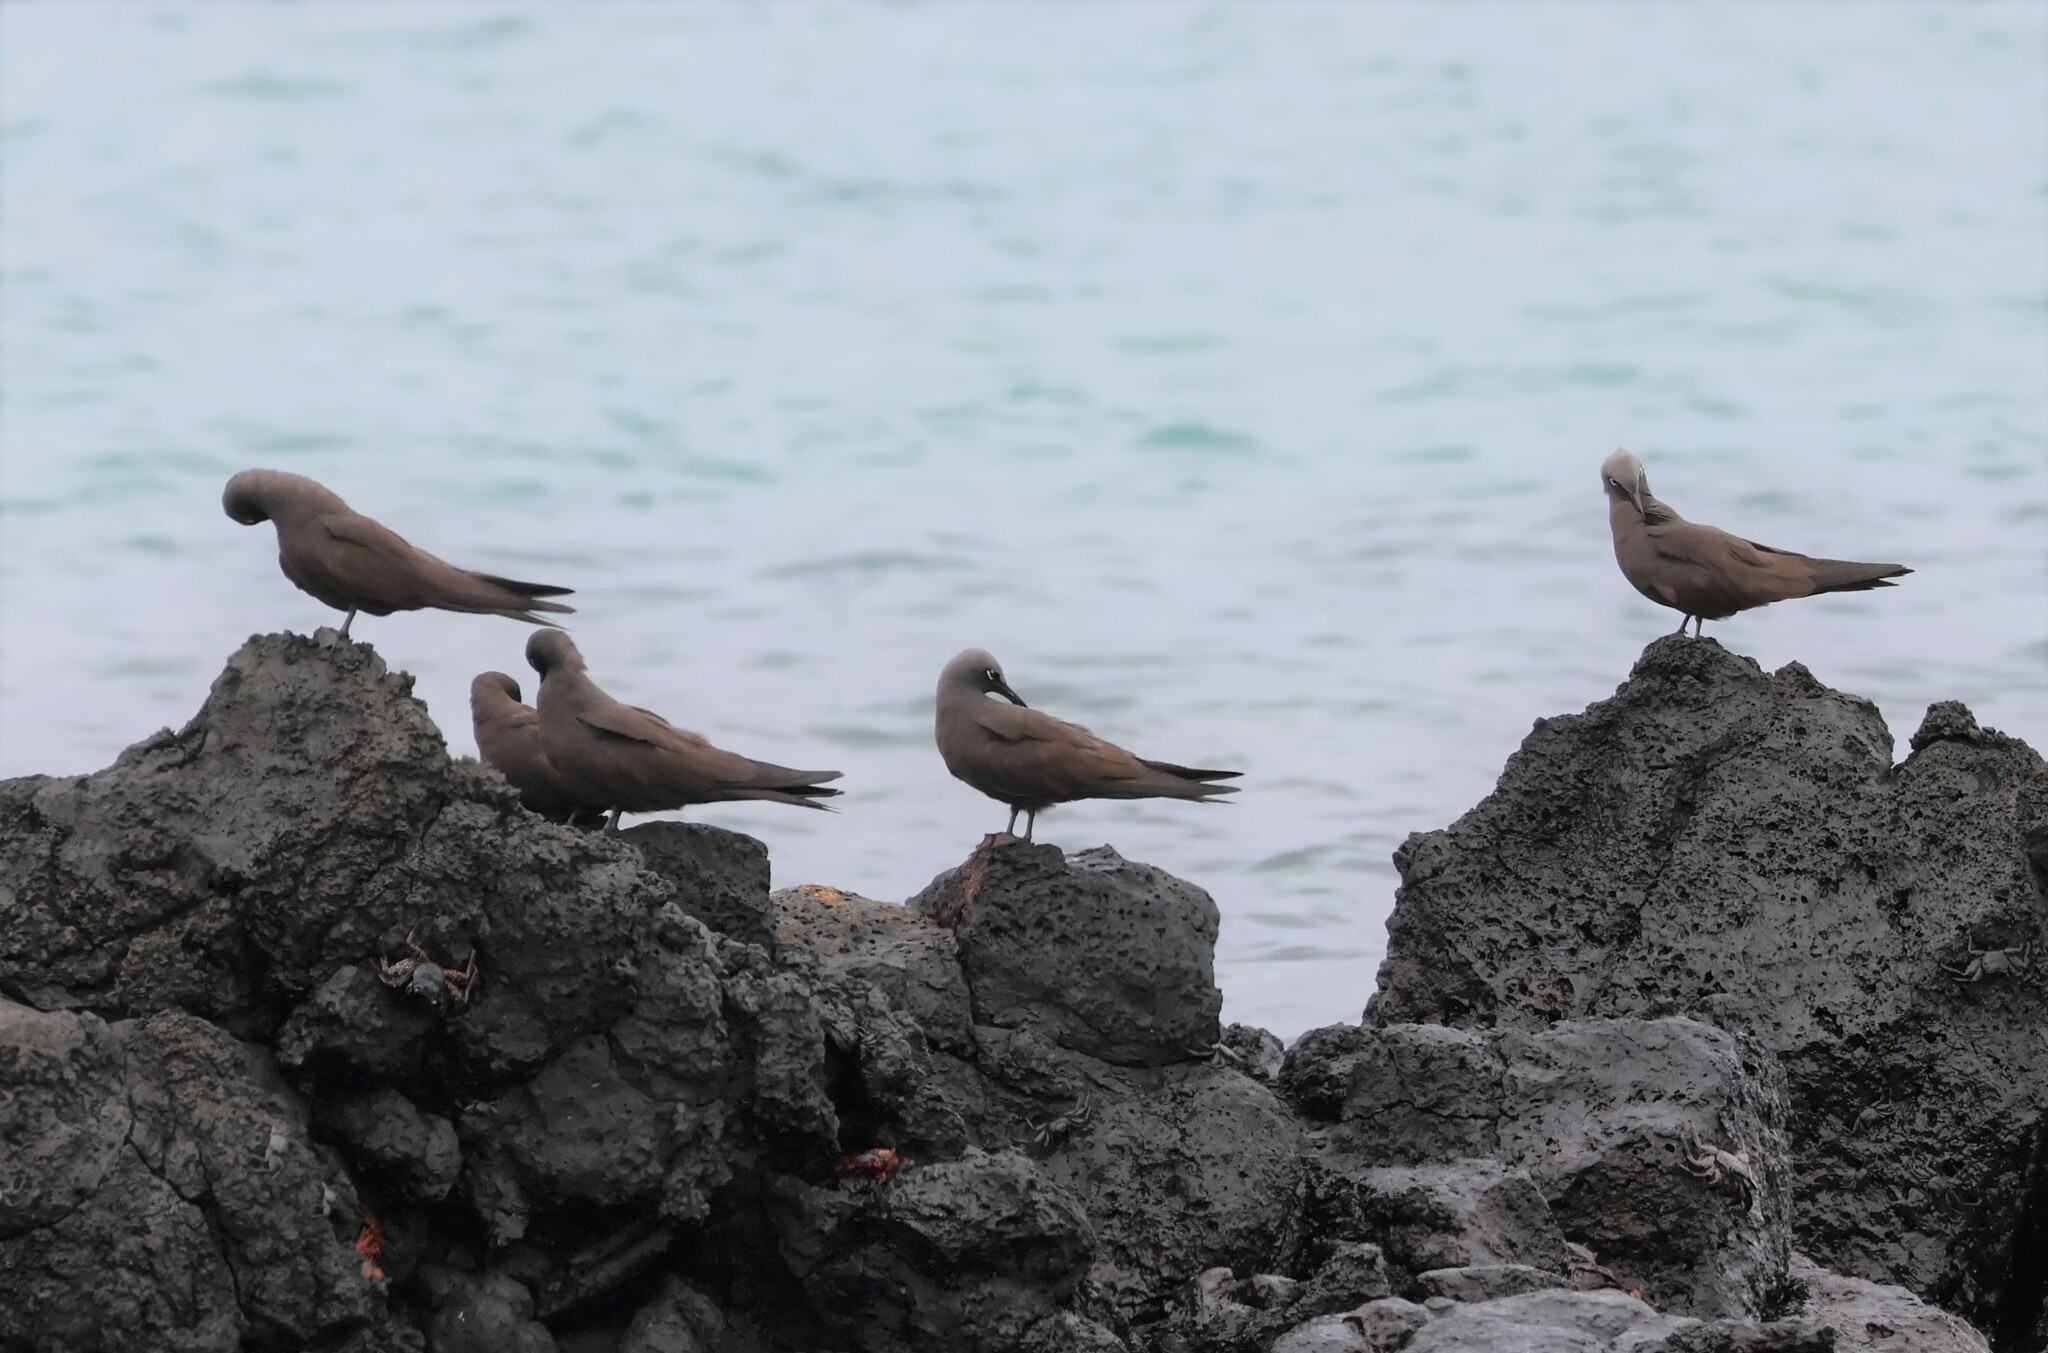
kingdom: Animalia
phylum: Chordata
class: Aves
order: Charadriiformes
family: Laridae
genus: Anous
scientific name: Anous stolidus
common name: Brown noddy
